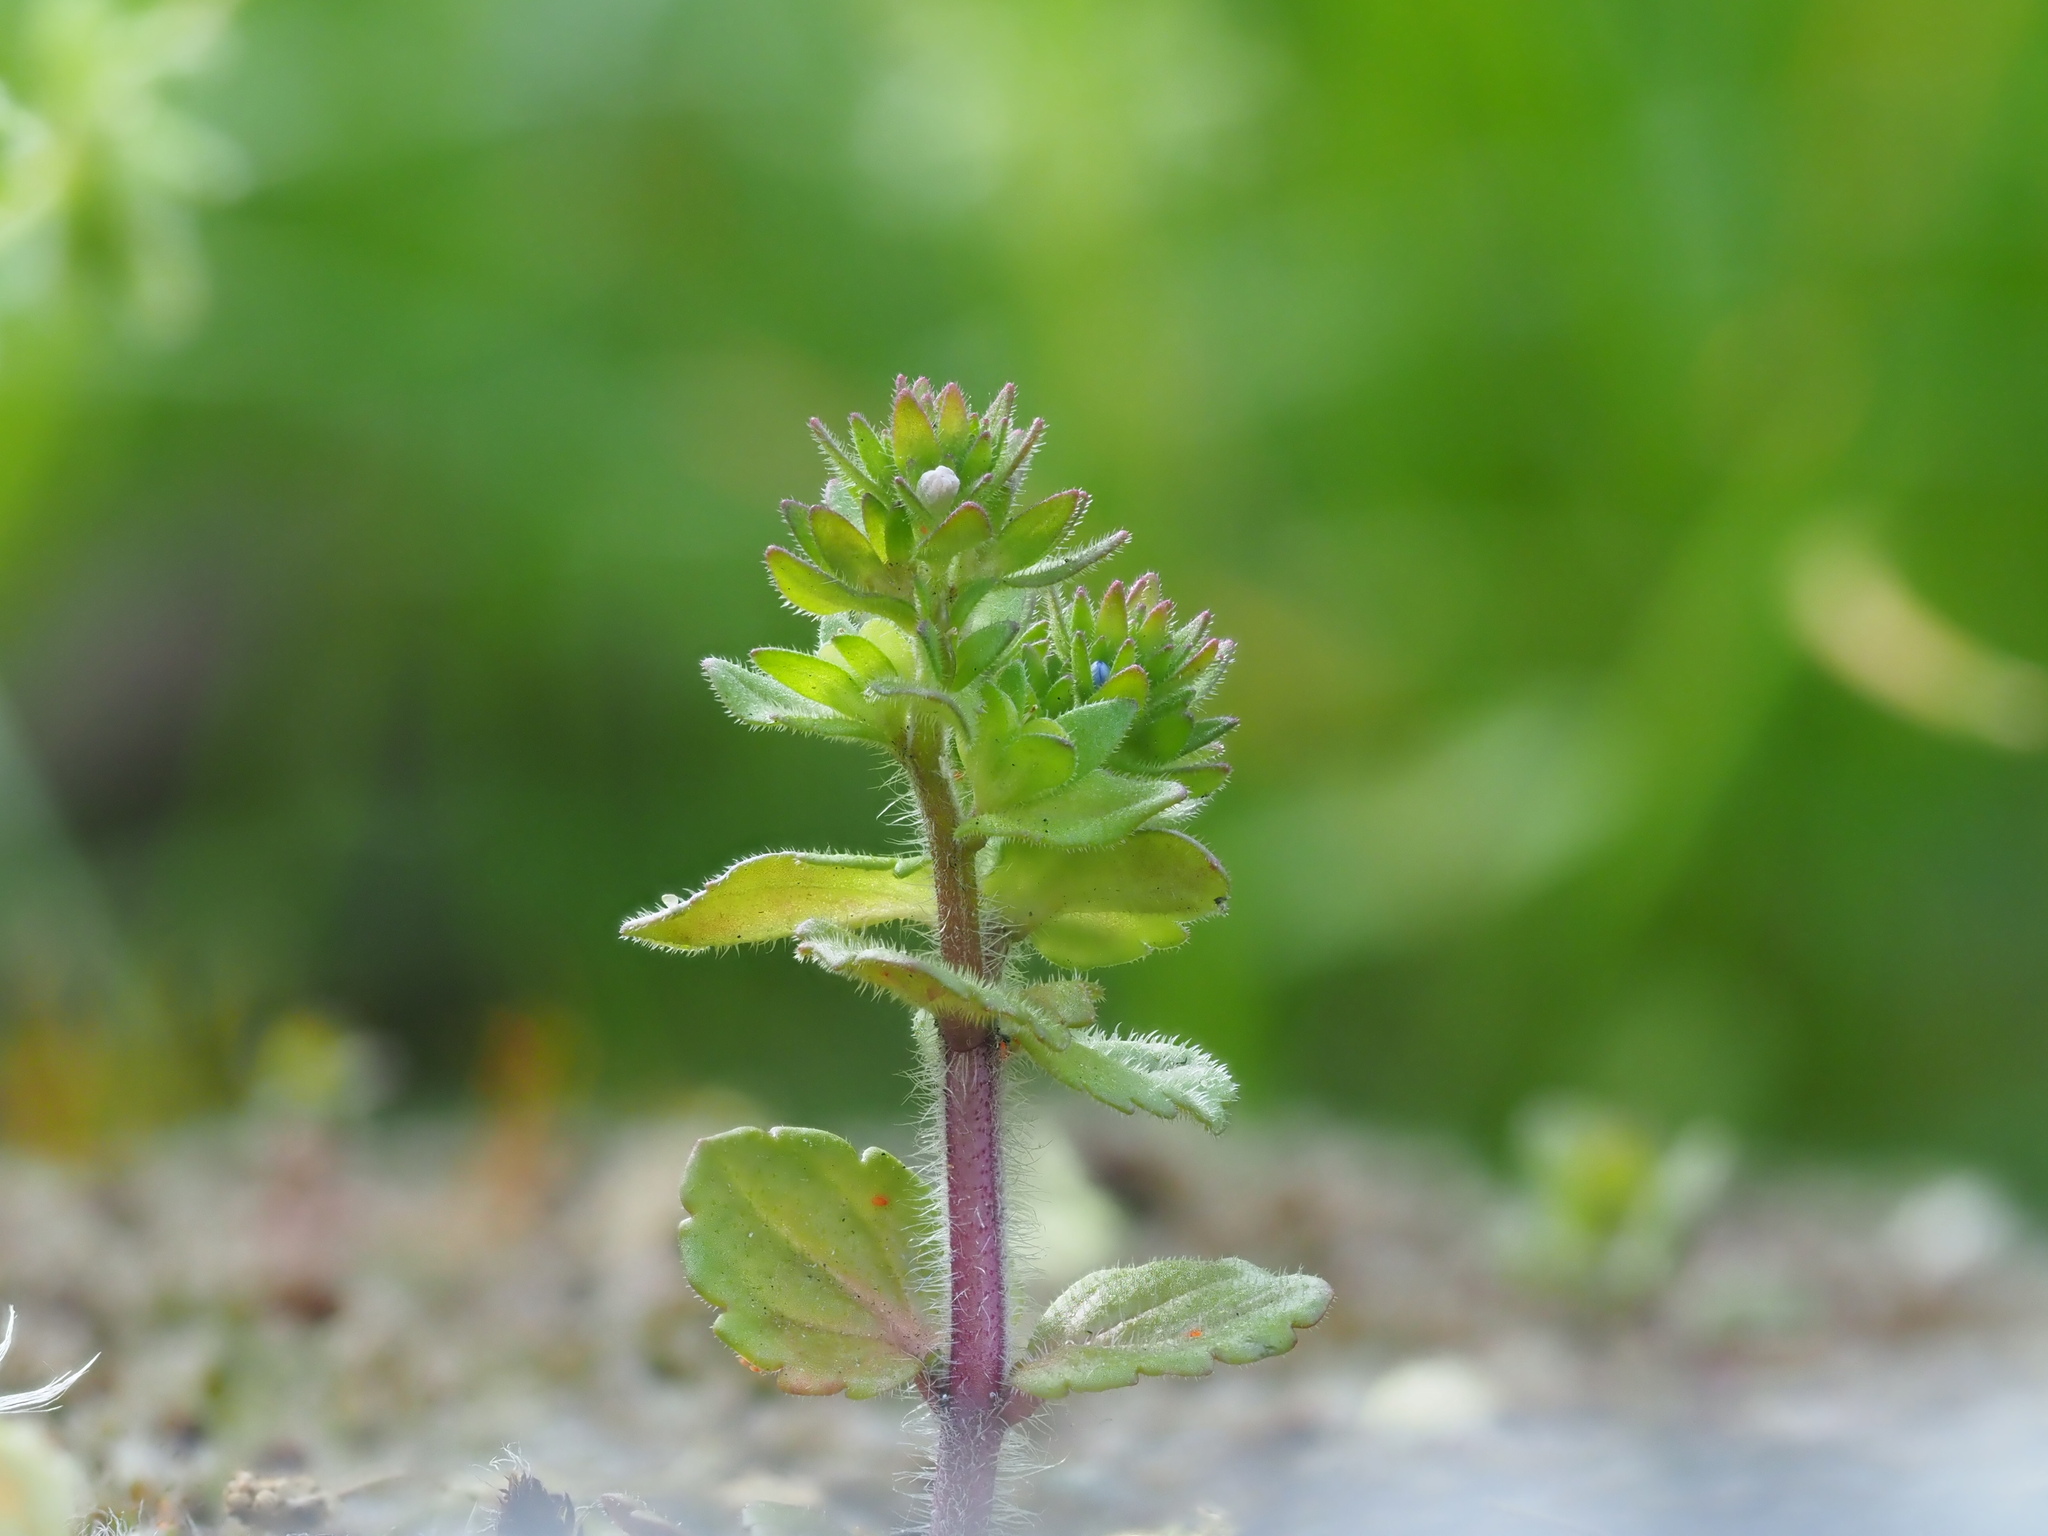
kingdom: Plantae
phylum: Tracheophyta
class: Magnoliopsida
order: Lamiales
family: Plantaginaceae
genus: Veronica
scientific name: Veronica arvensis
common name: Corn speedwell
